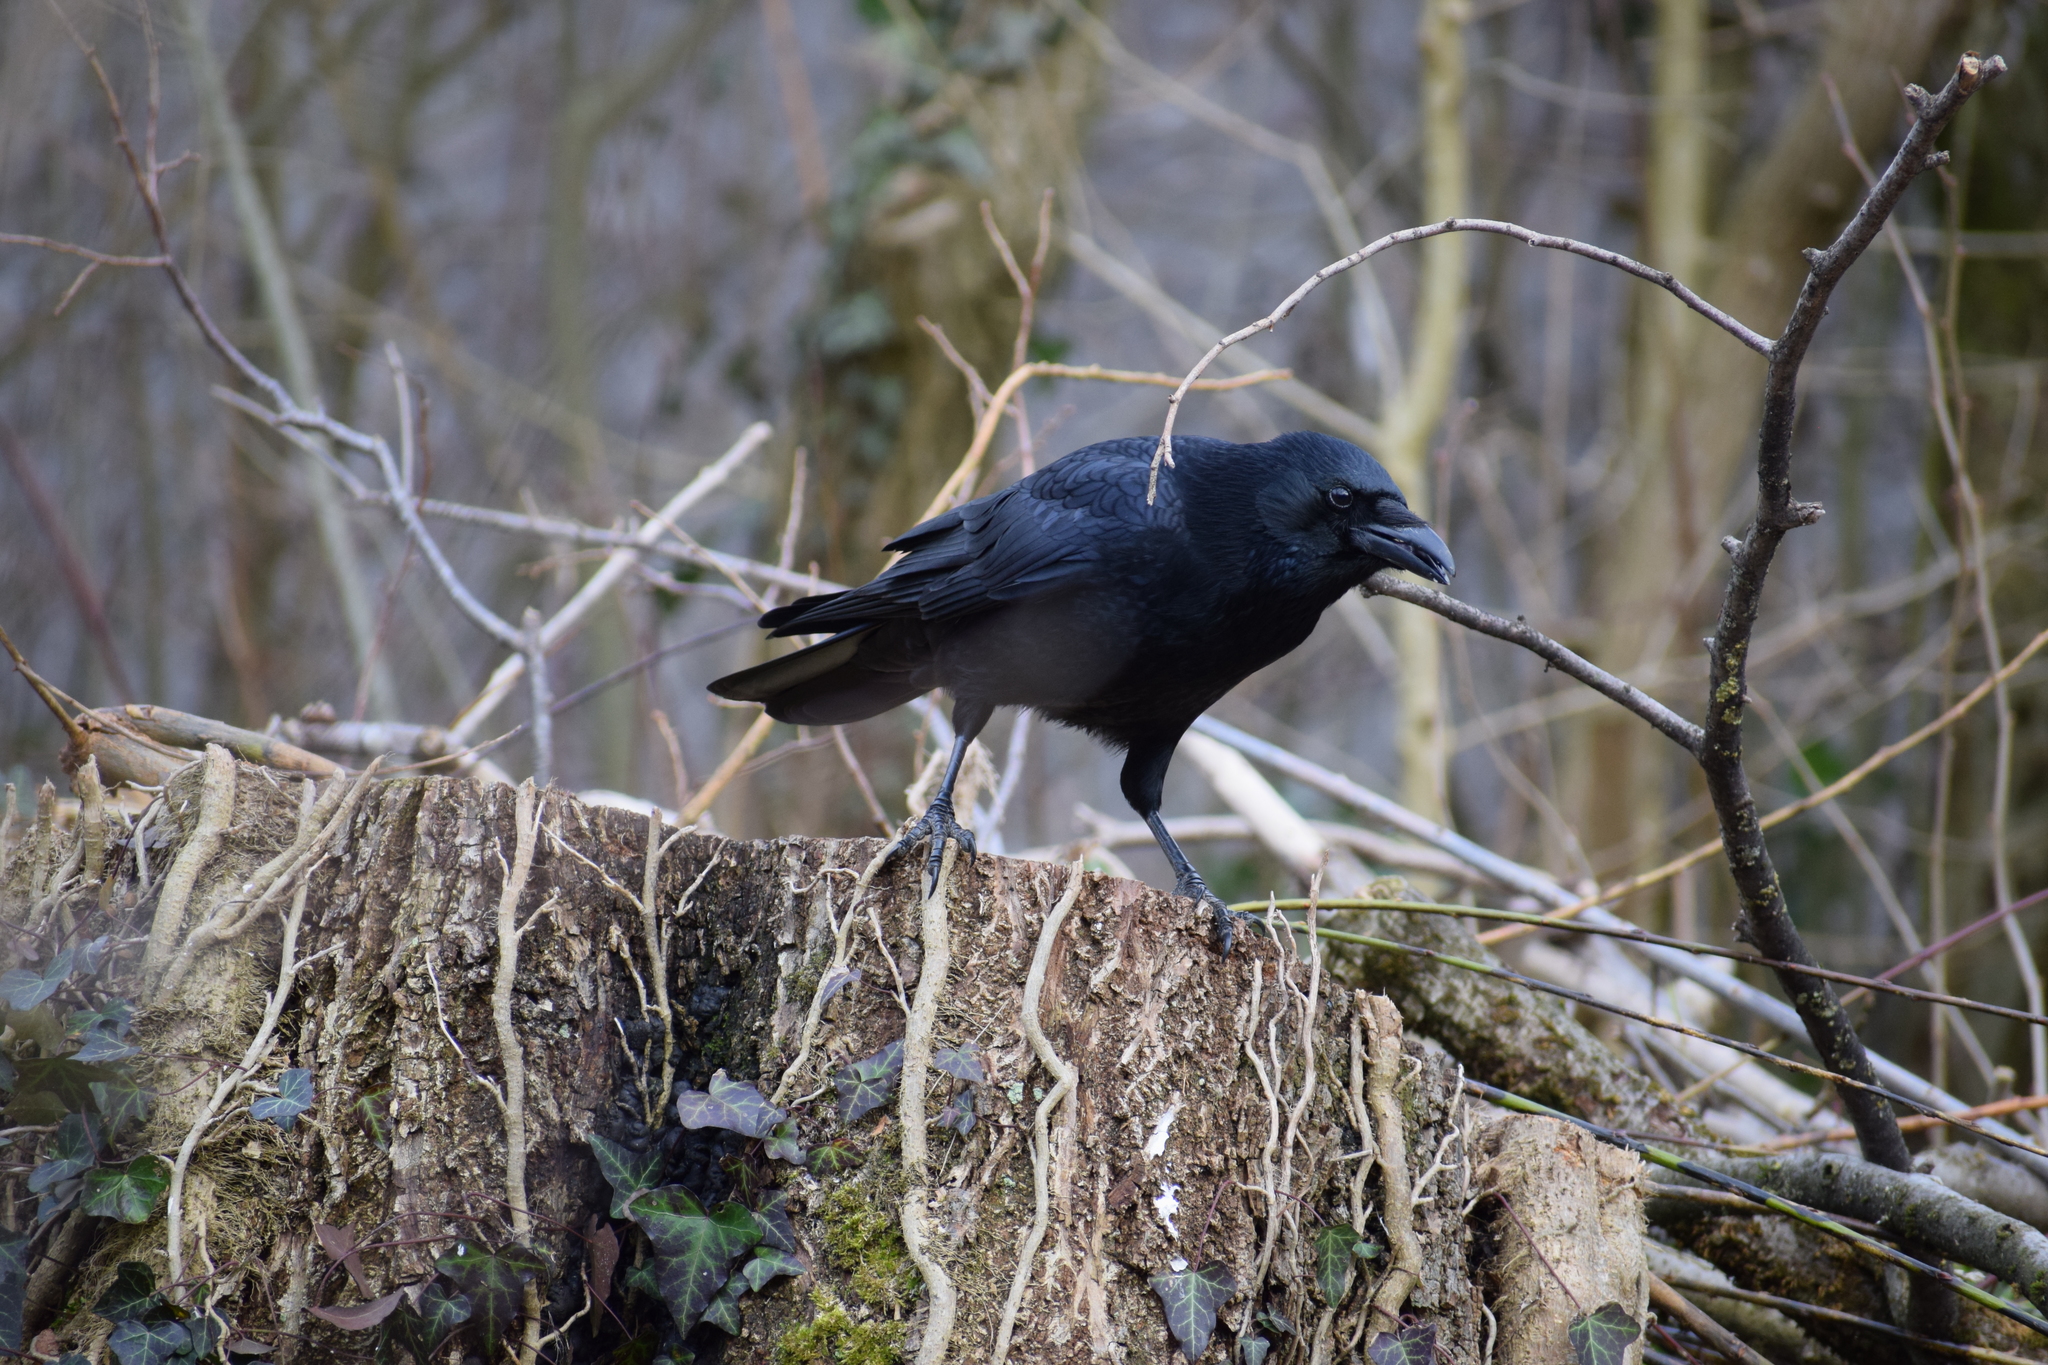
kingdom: Animalia
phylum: Chordata
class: Aves
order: Passeriformes
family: Corvidae
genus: Corvus
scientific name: Corvus corone
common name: Carrion crow
